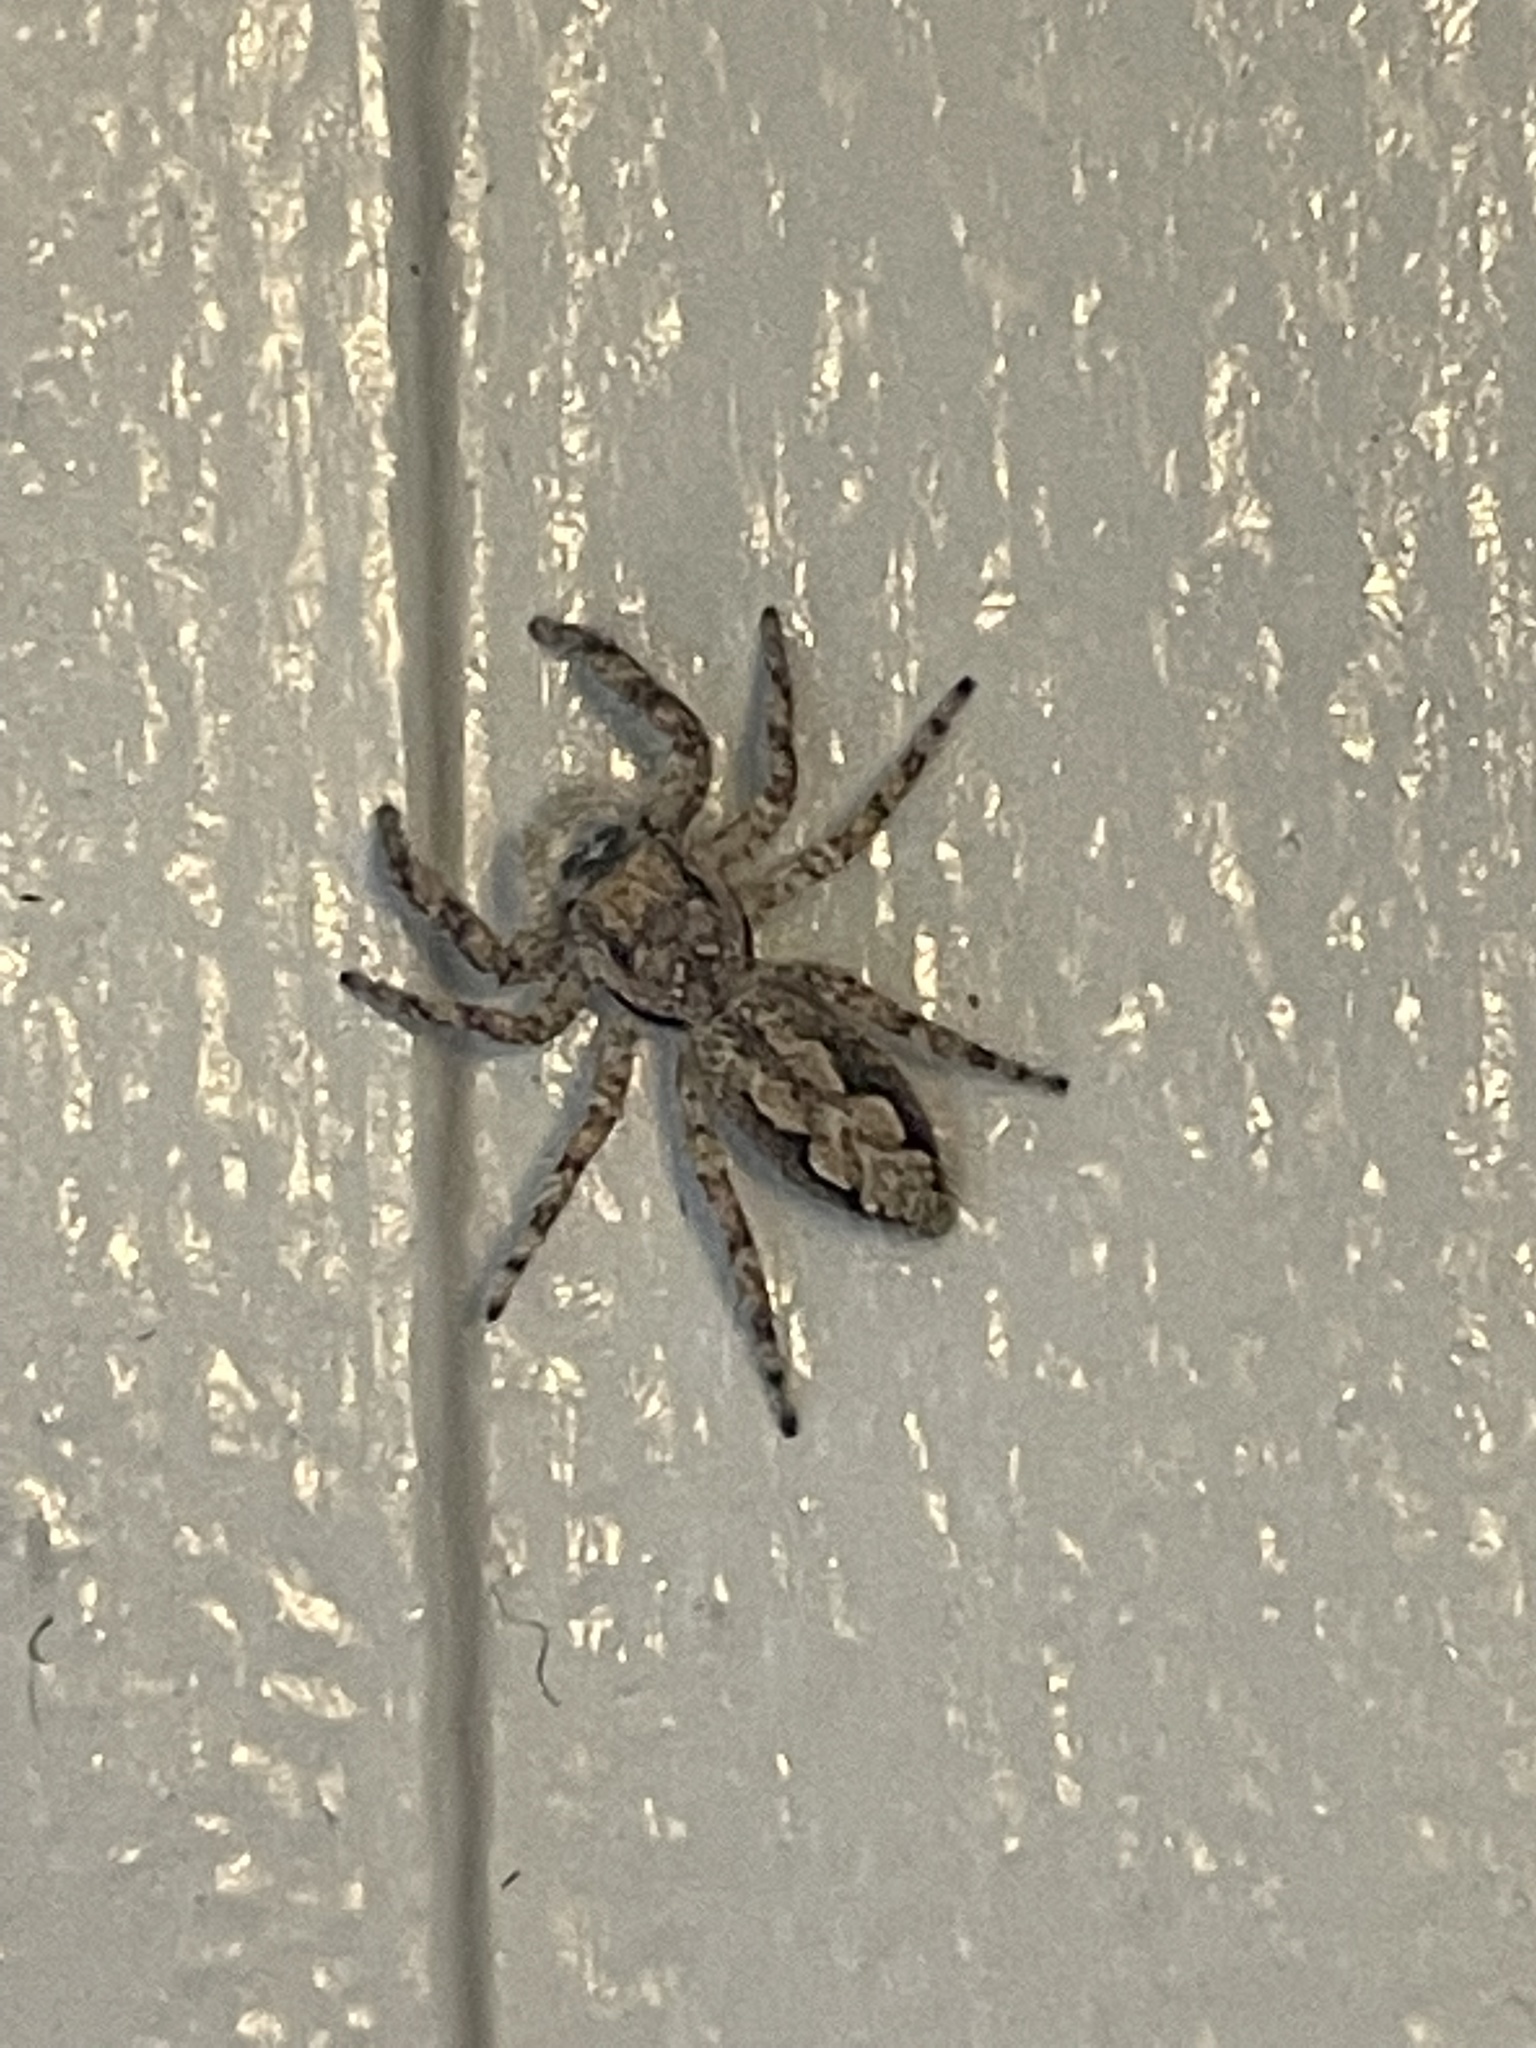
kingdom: Animalia
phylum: Arthropoda
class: Arachnida
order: Araneae
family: Salticidae
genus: Platycryptus
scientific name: Platycryptus undatus
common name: Tan jumping spider
